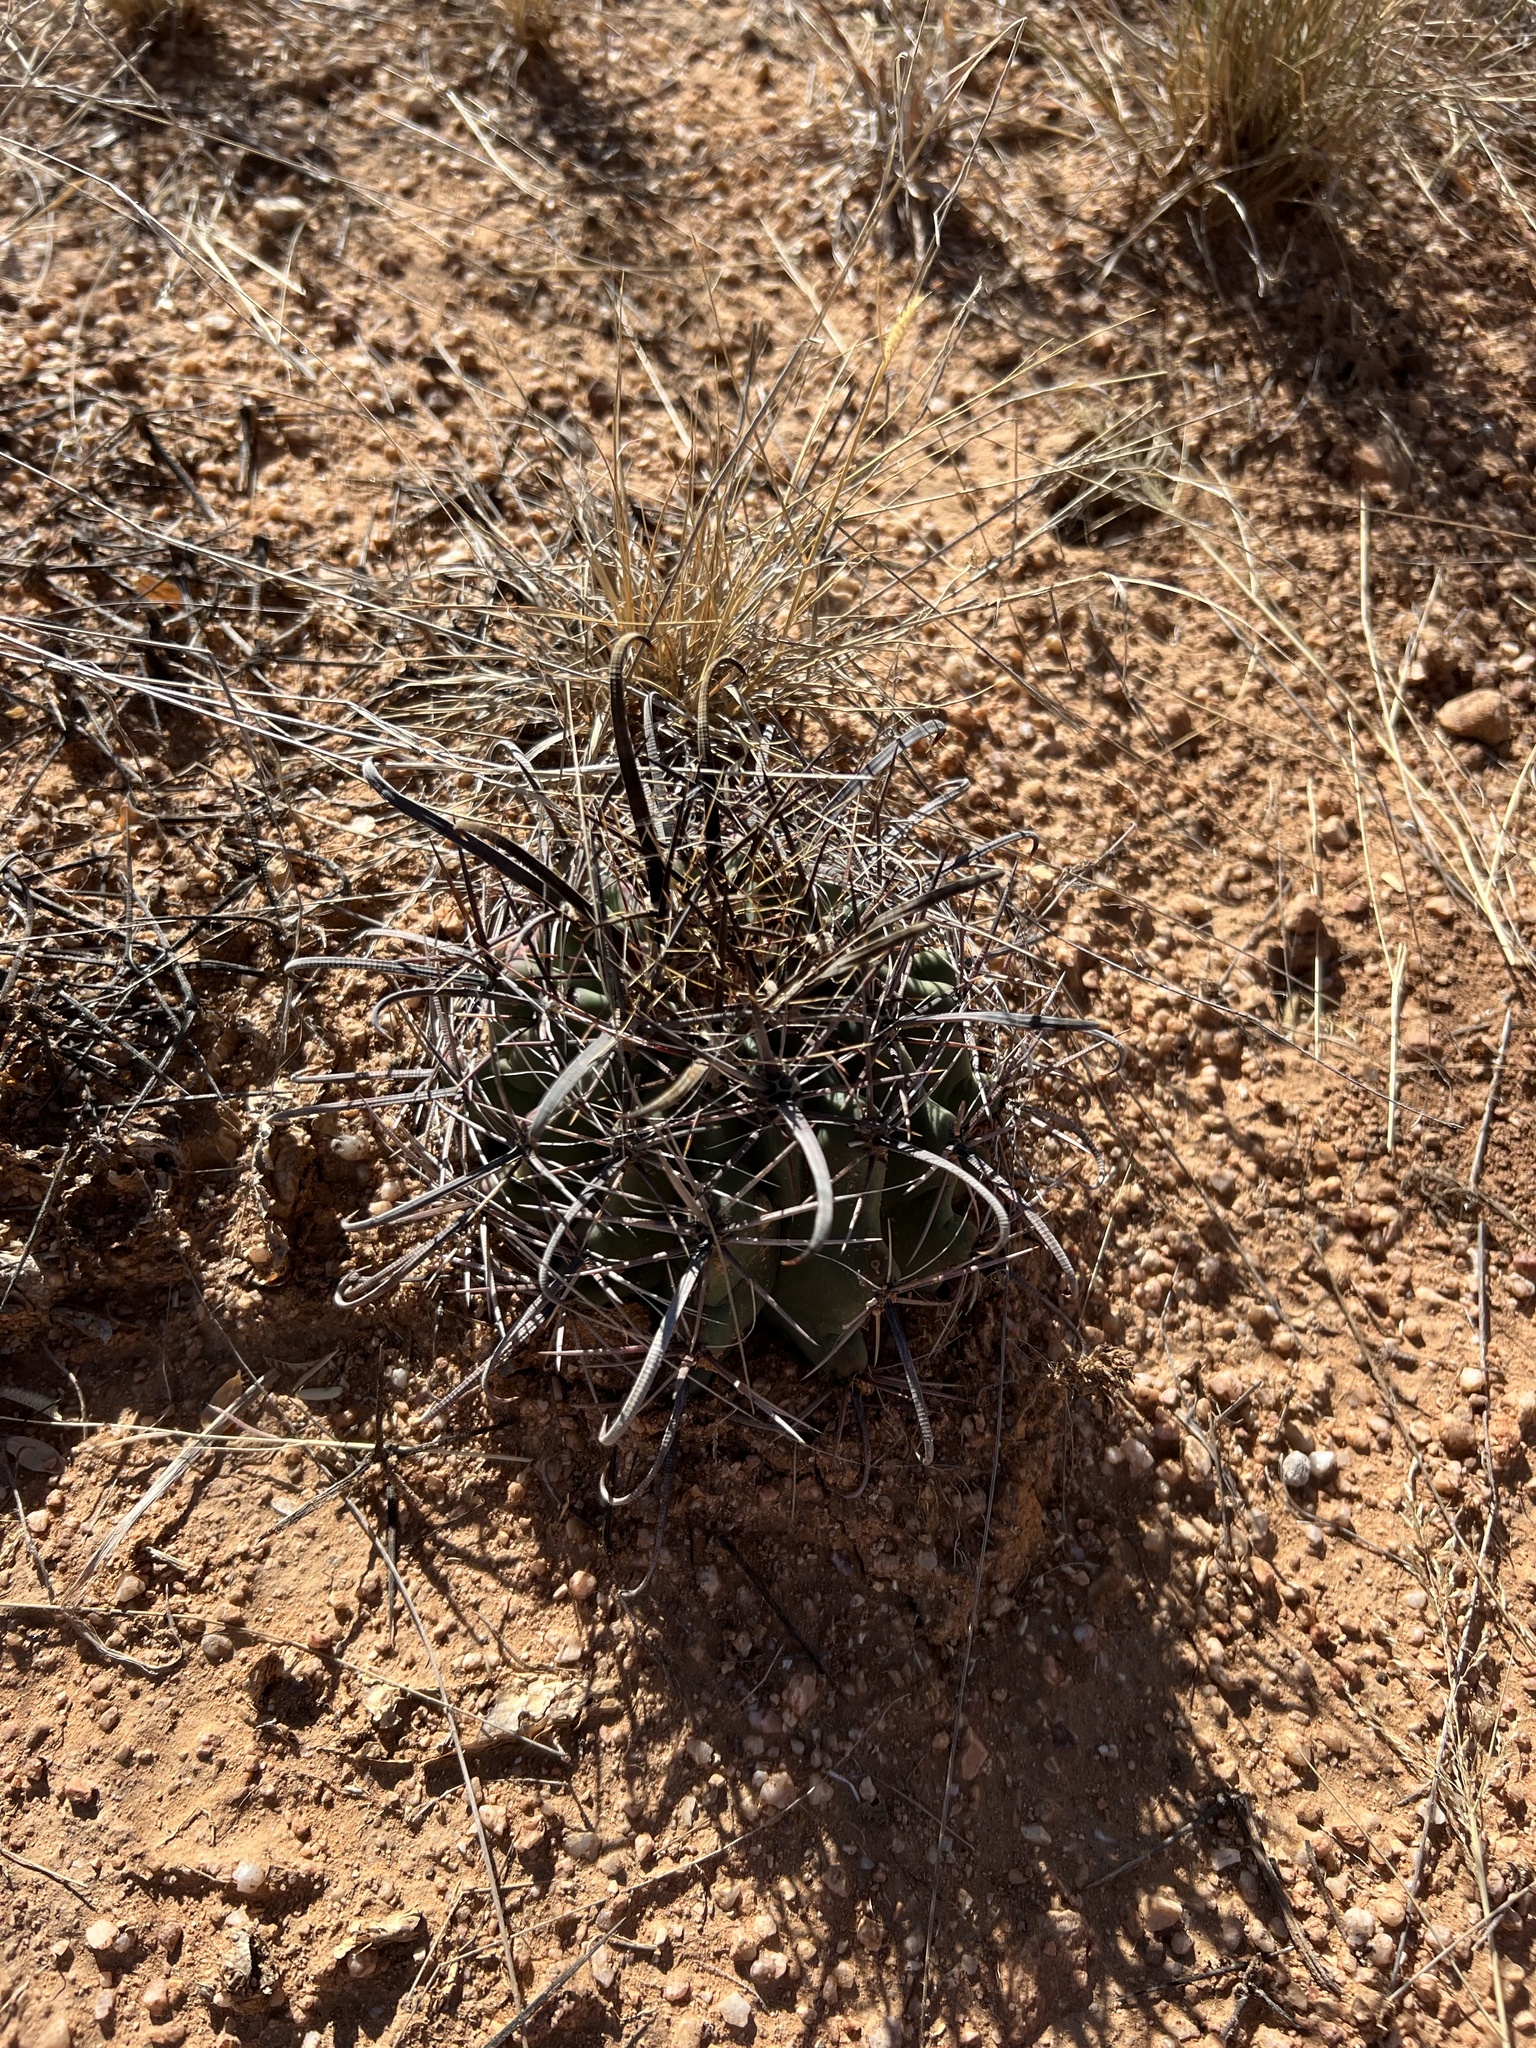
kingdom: Plantae
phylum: Tracheophyta
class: Magnoliopsida
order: Caryophyllales
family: Cactaceae
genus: Ferocactus
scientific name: Ferocactus wislizeni
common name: Candy barrel cactus
